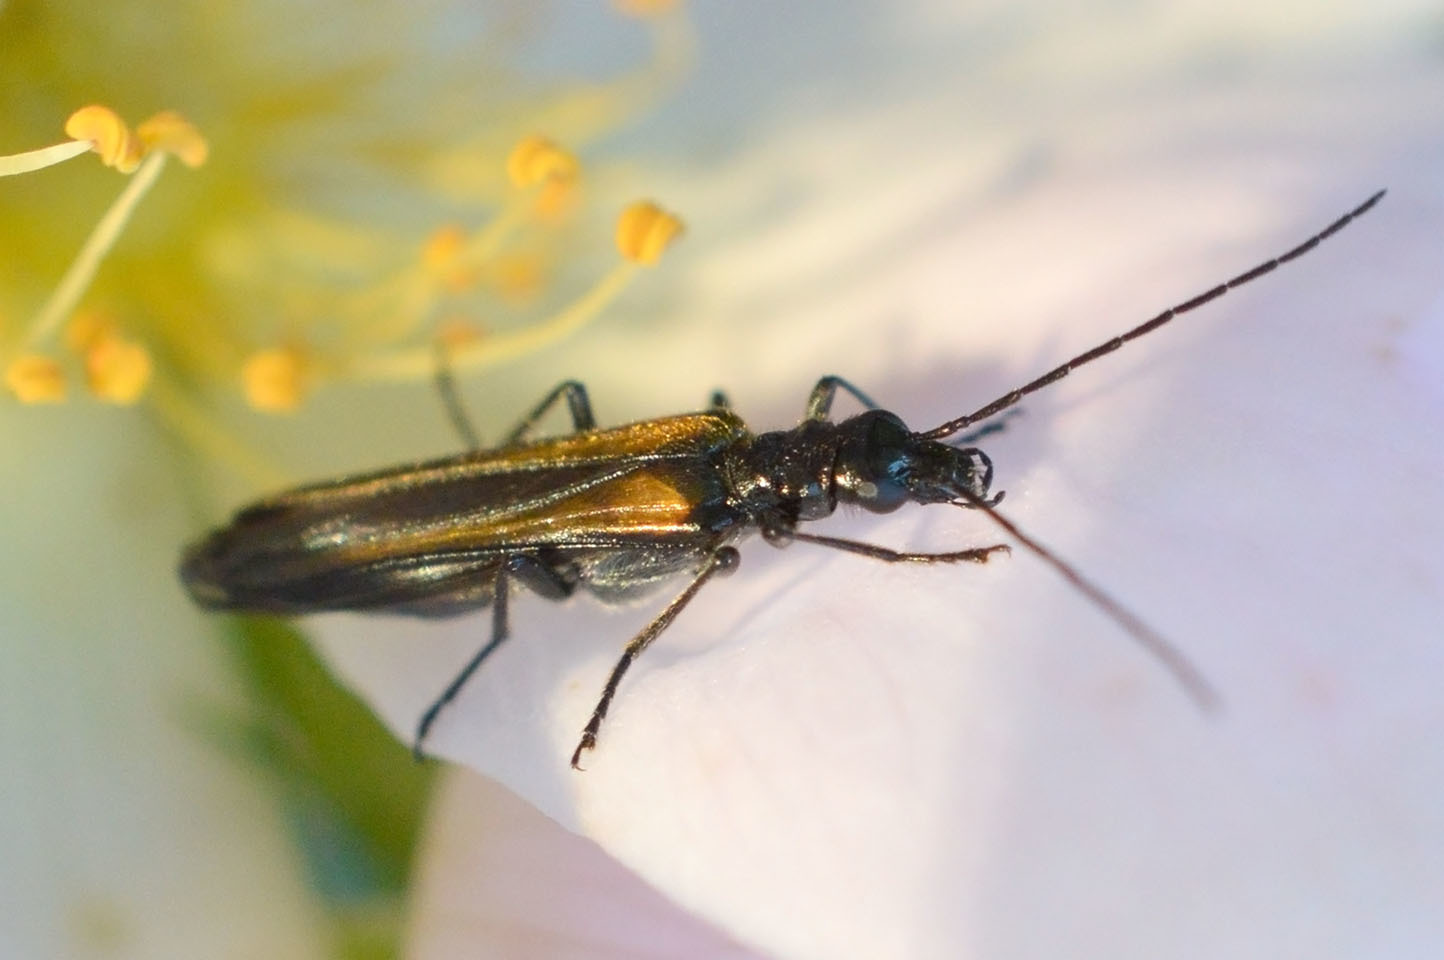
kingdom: Animalia
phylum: Arthropoda
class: Insecta
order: Coleoptera
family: Oedemeridae
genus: Oedemera
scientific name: Oedemera pthysica
